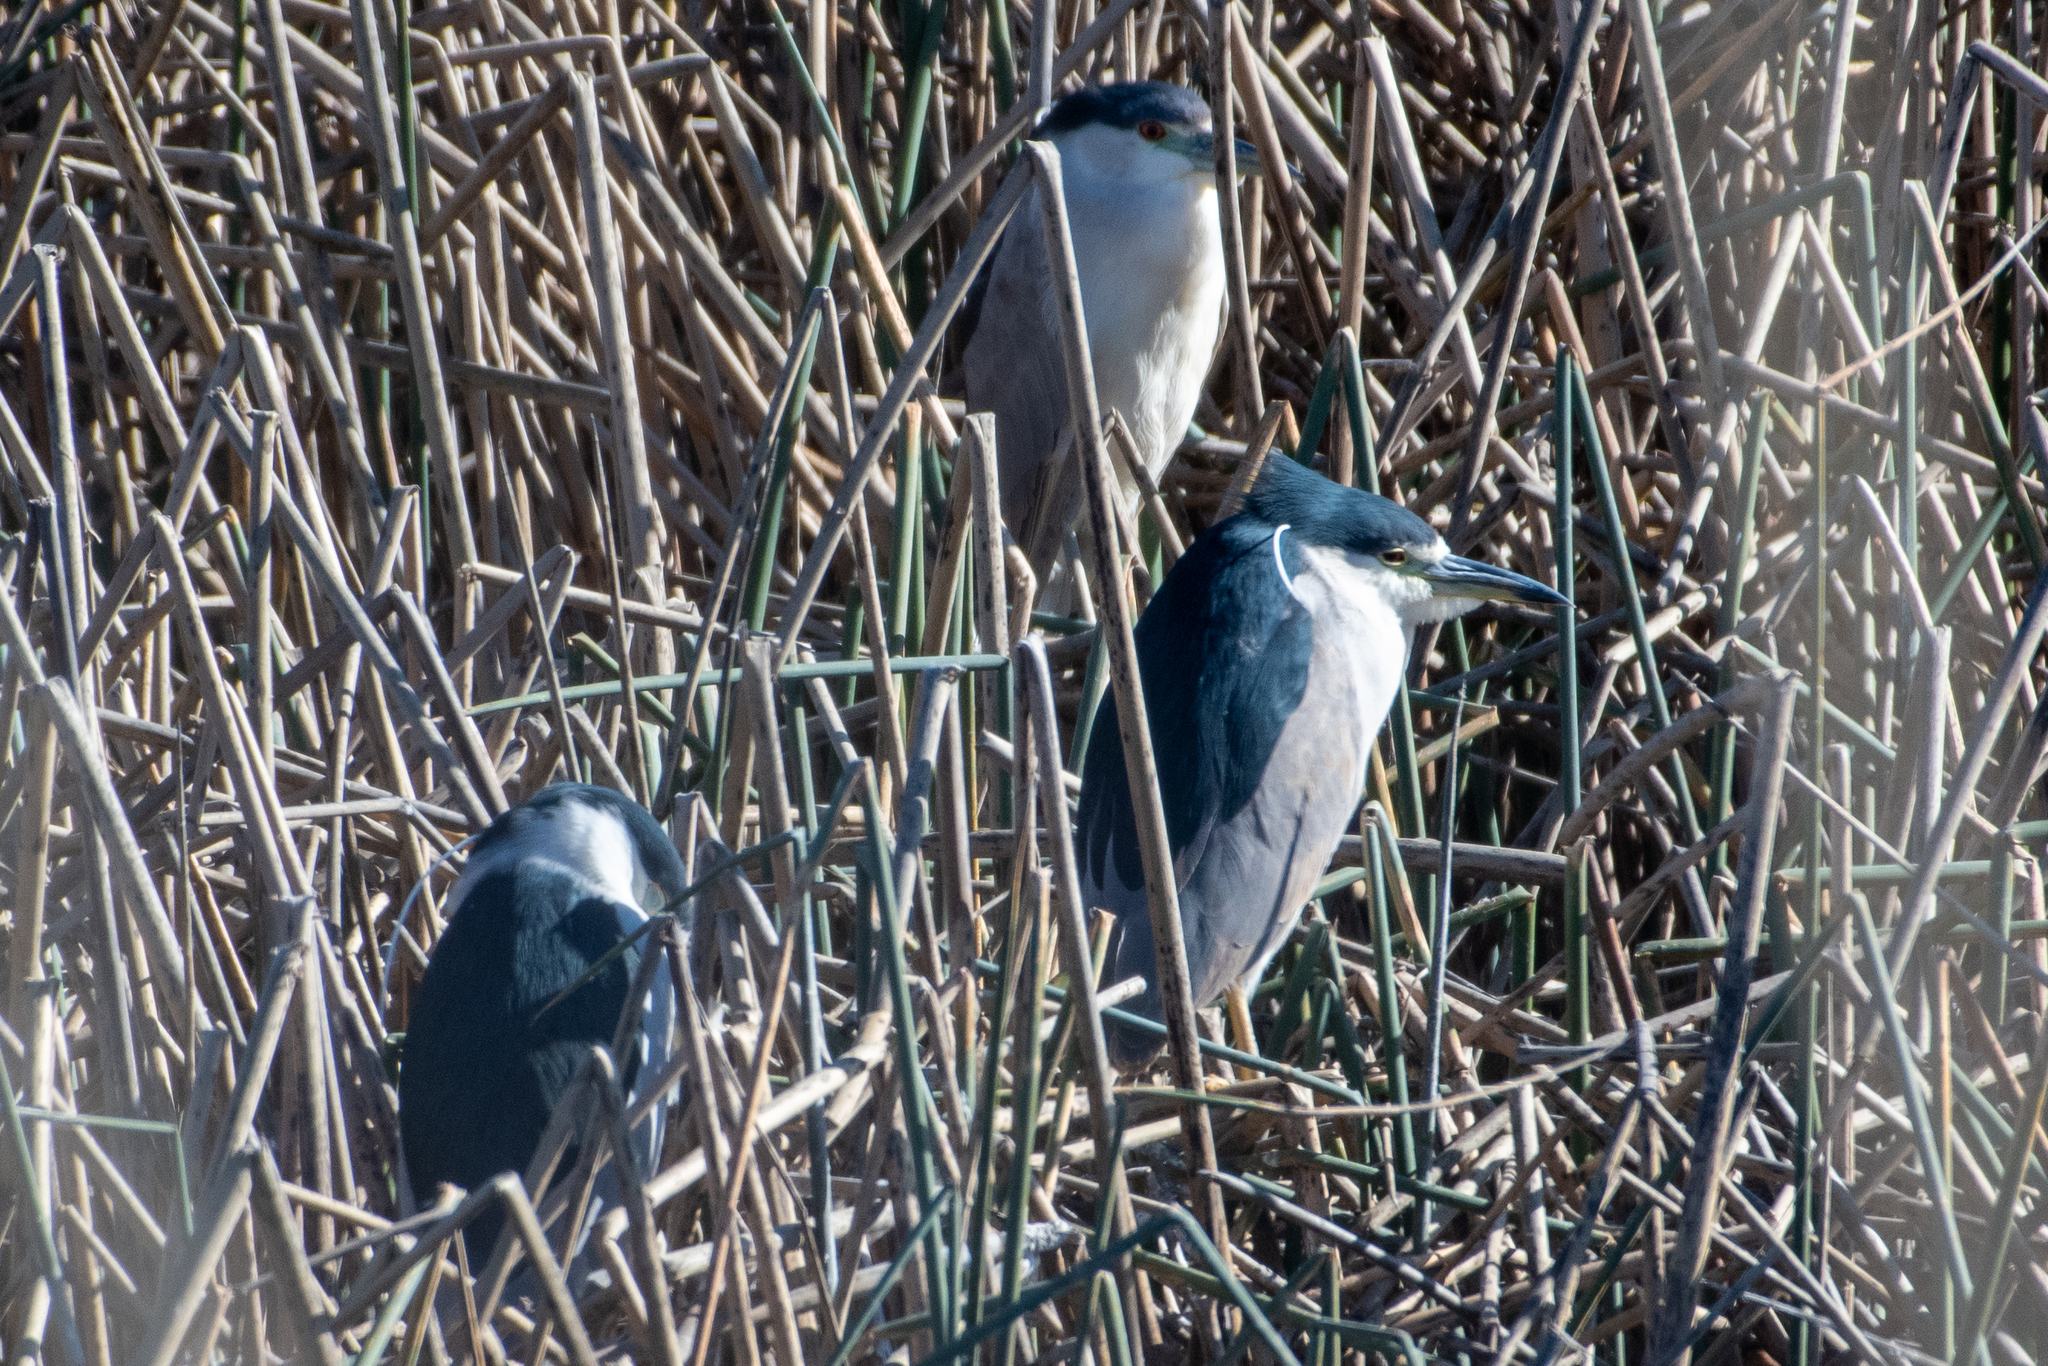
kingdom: Animalia
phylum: Chordata
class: Aves
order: Pelecaniformes
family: Ardeidae
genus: Nycticorax
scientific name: Nycticorax nycticorax
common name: Black-crowned night heron
